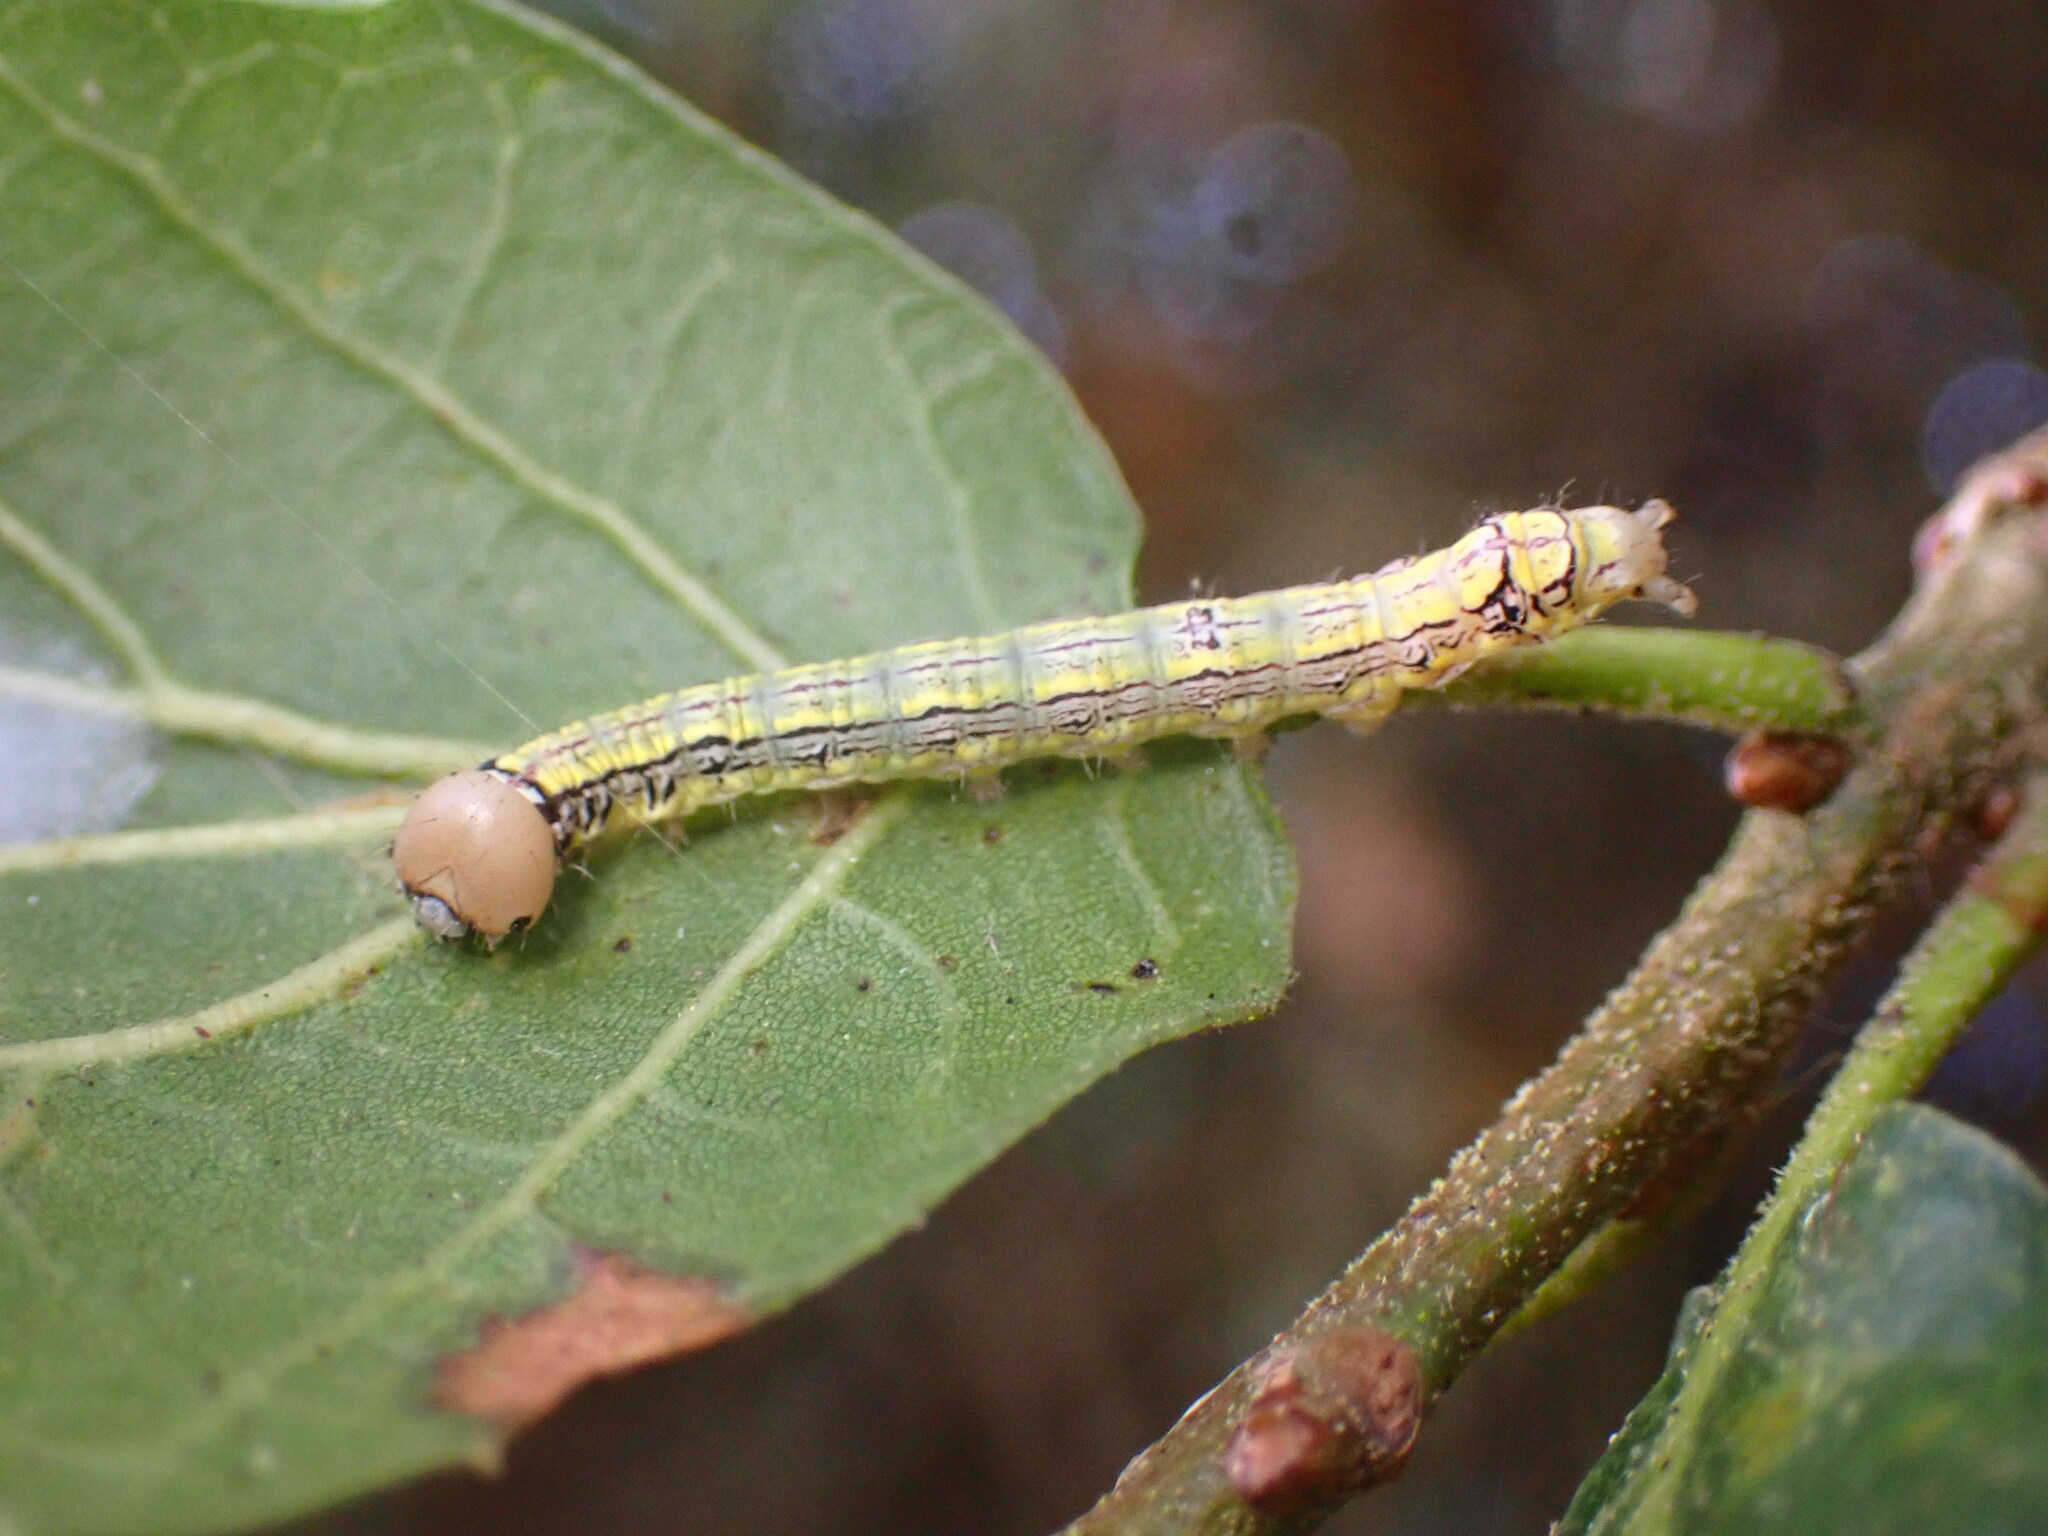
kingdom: Animalia
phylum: Arthropoda
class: Insecta
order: Lepidoptera
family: Notodontidae
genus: Phryganidia
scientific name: Phryganidia californica
